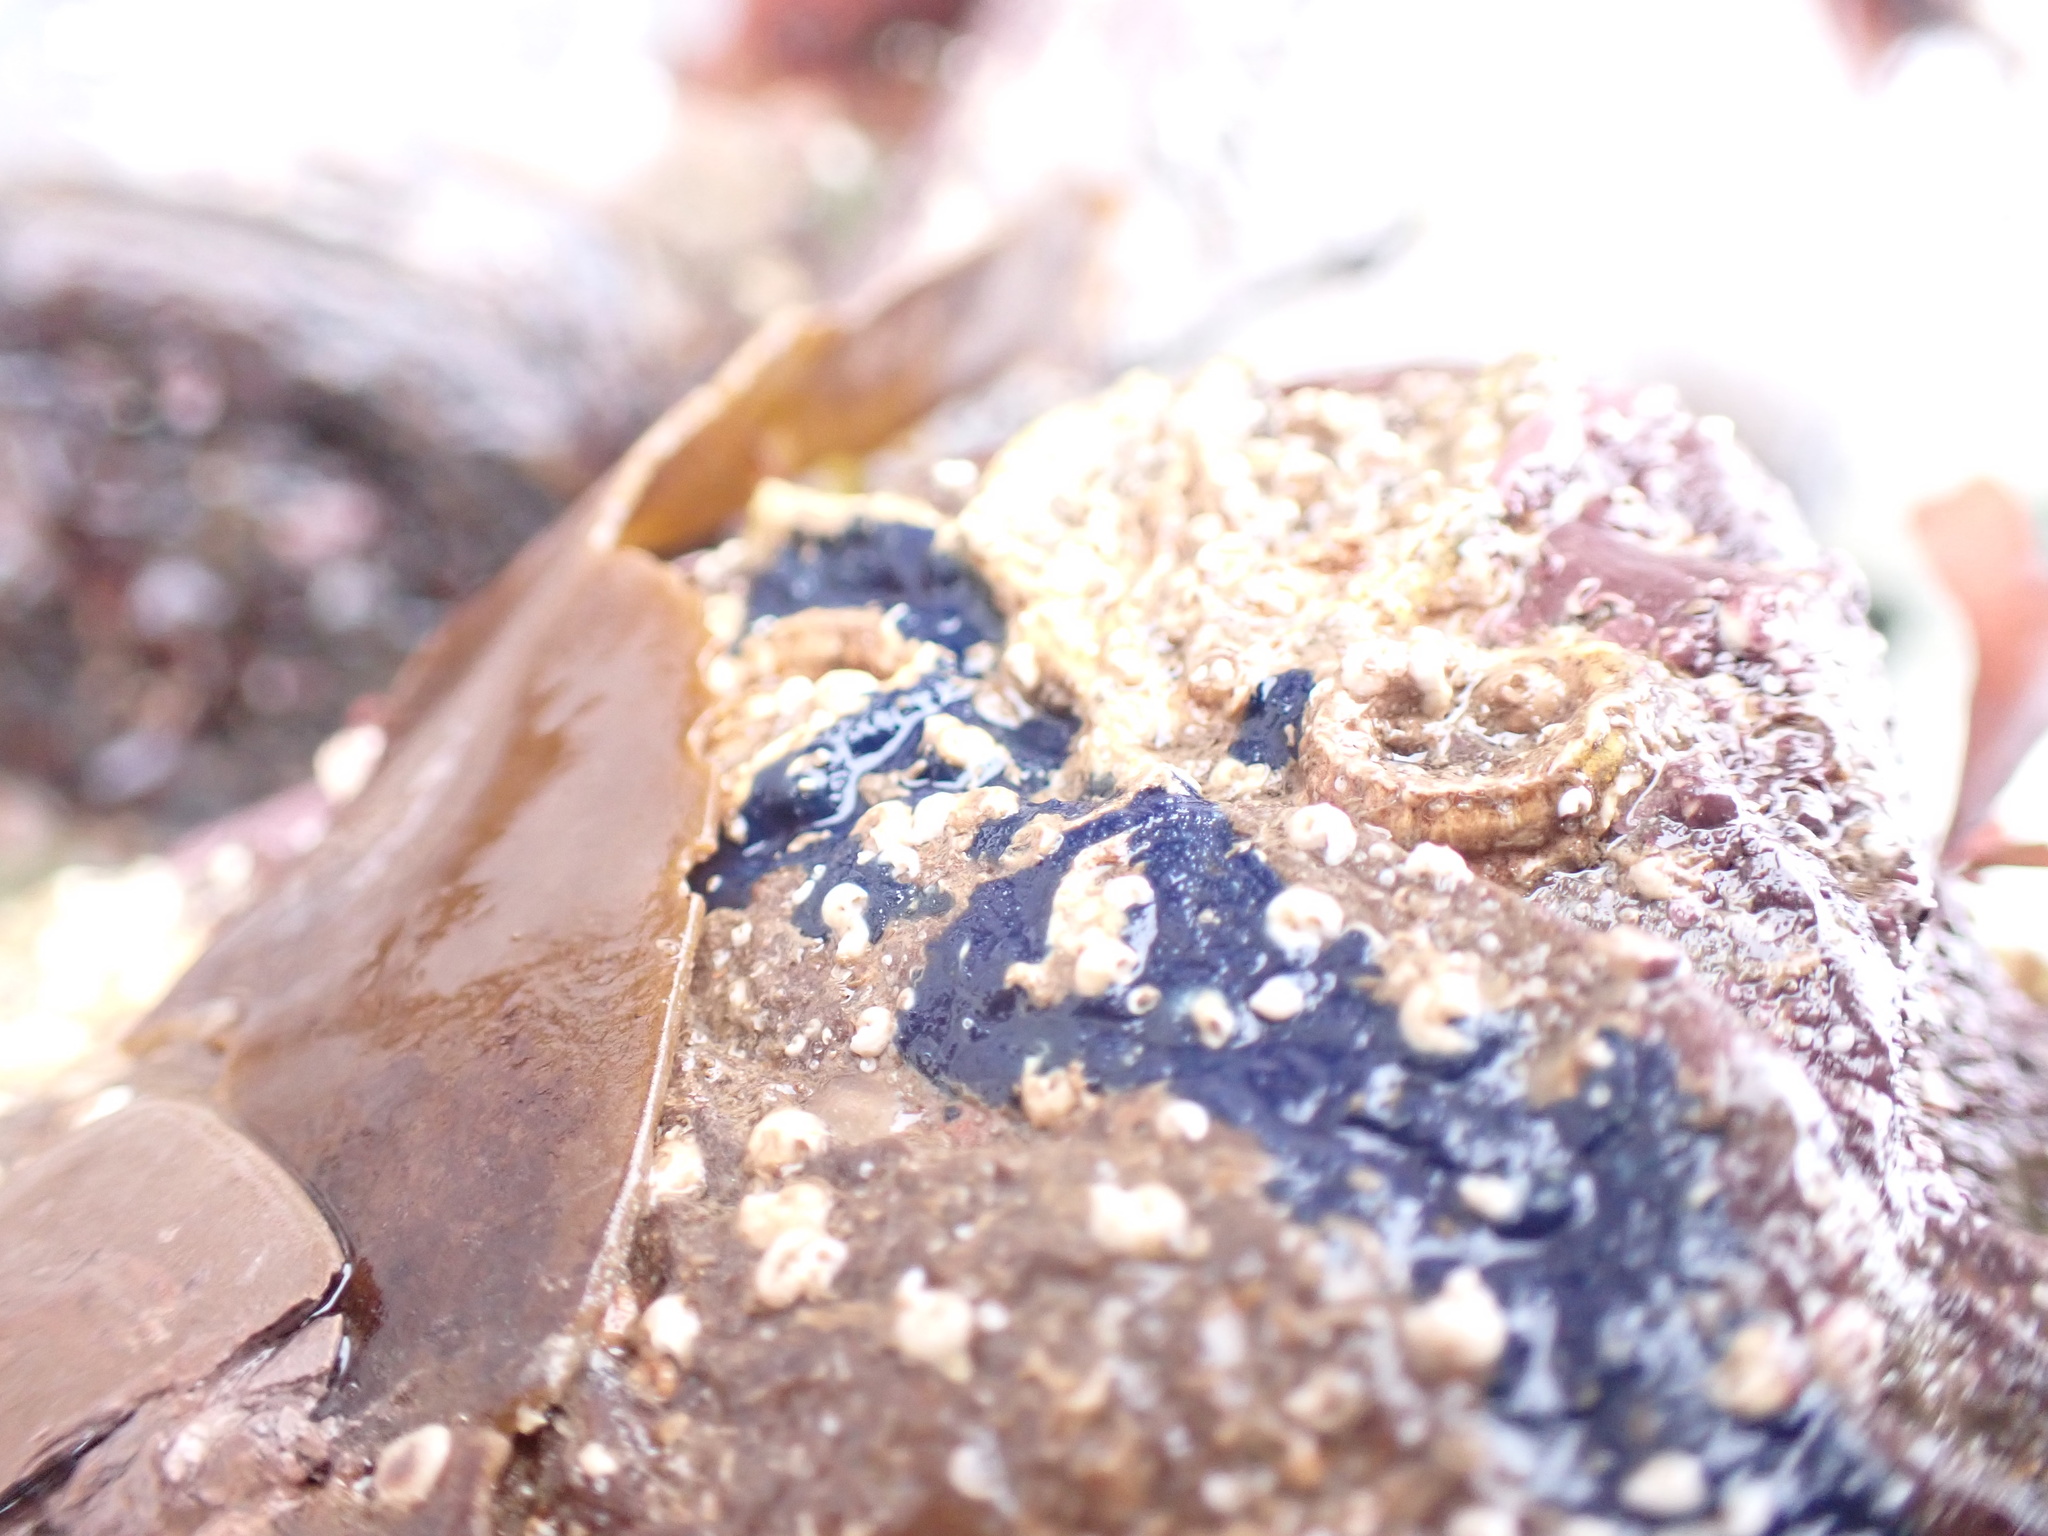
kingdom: Animalia
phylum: Porifera
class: Demospongiae
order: Suberitida
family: Suberitidae
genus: Terpios
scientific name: Terpios gelatinosus
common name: Blue encrusting sponge
